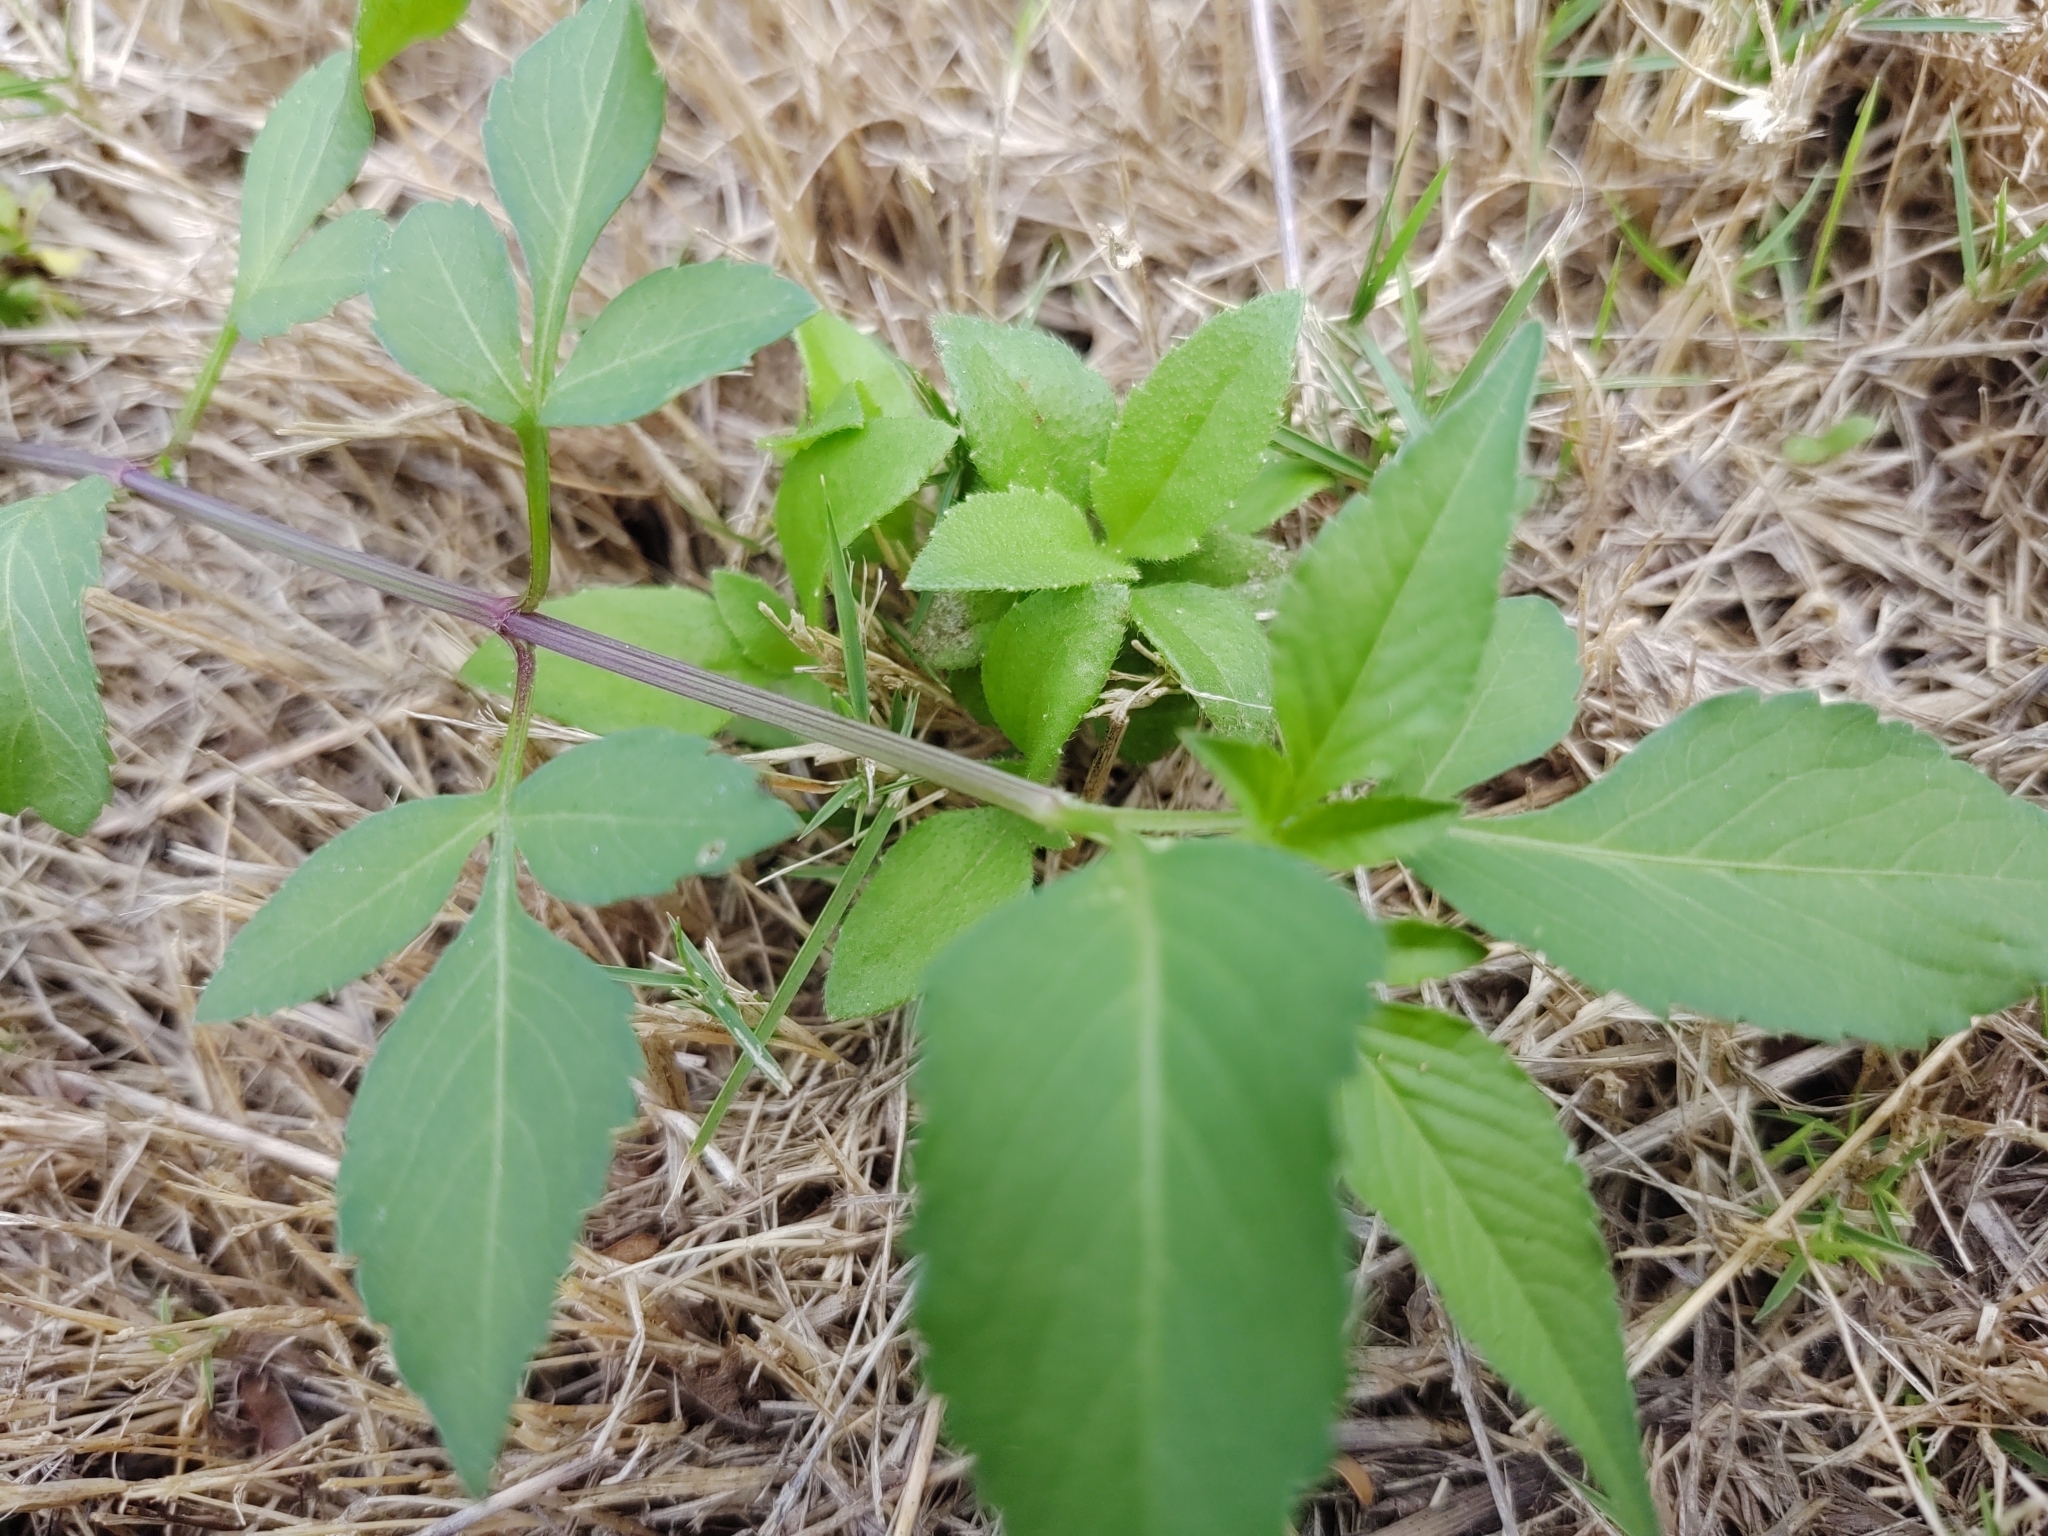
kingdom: Plantae
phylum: Tracheophyta
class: Magnoliopsida
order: Asterales
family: Asteraceae
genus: Bidens
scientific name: Bidens alba
